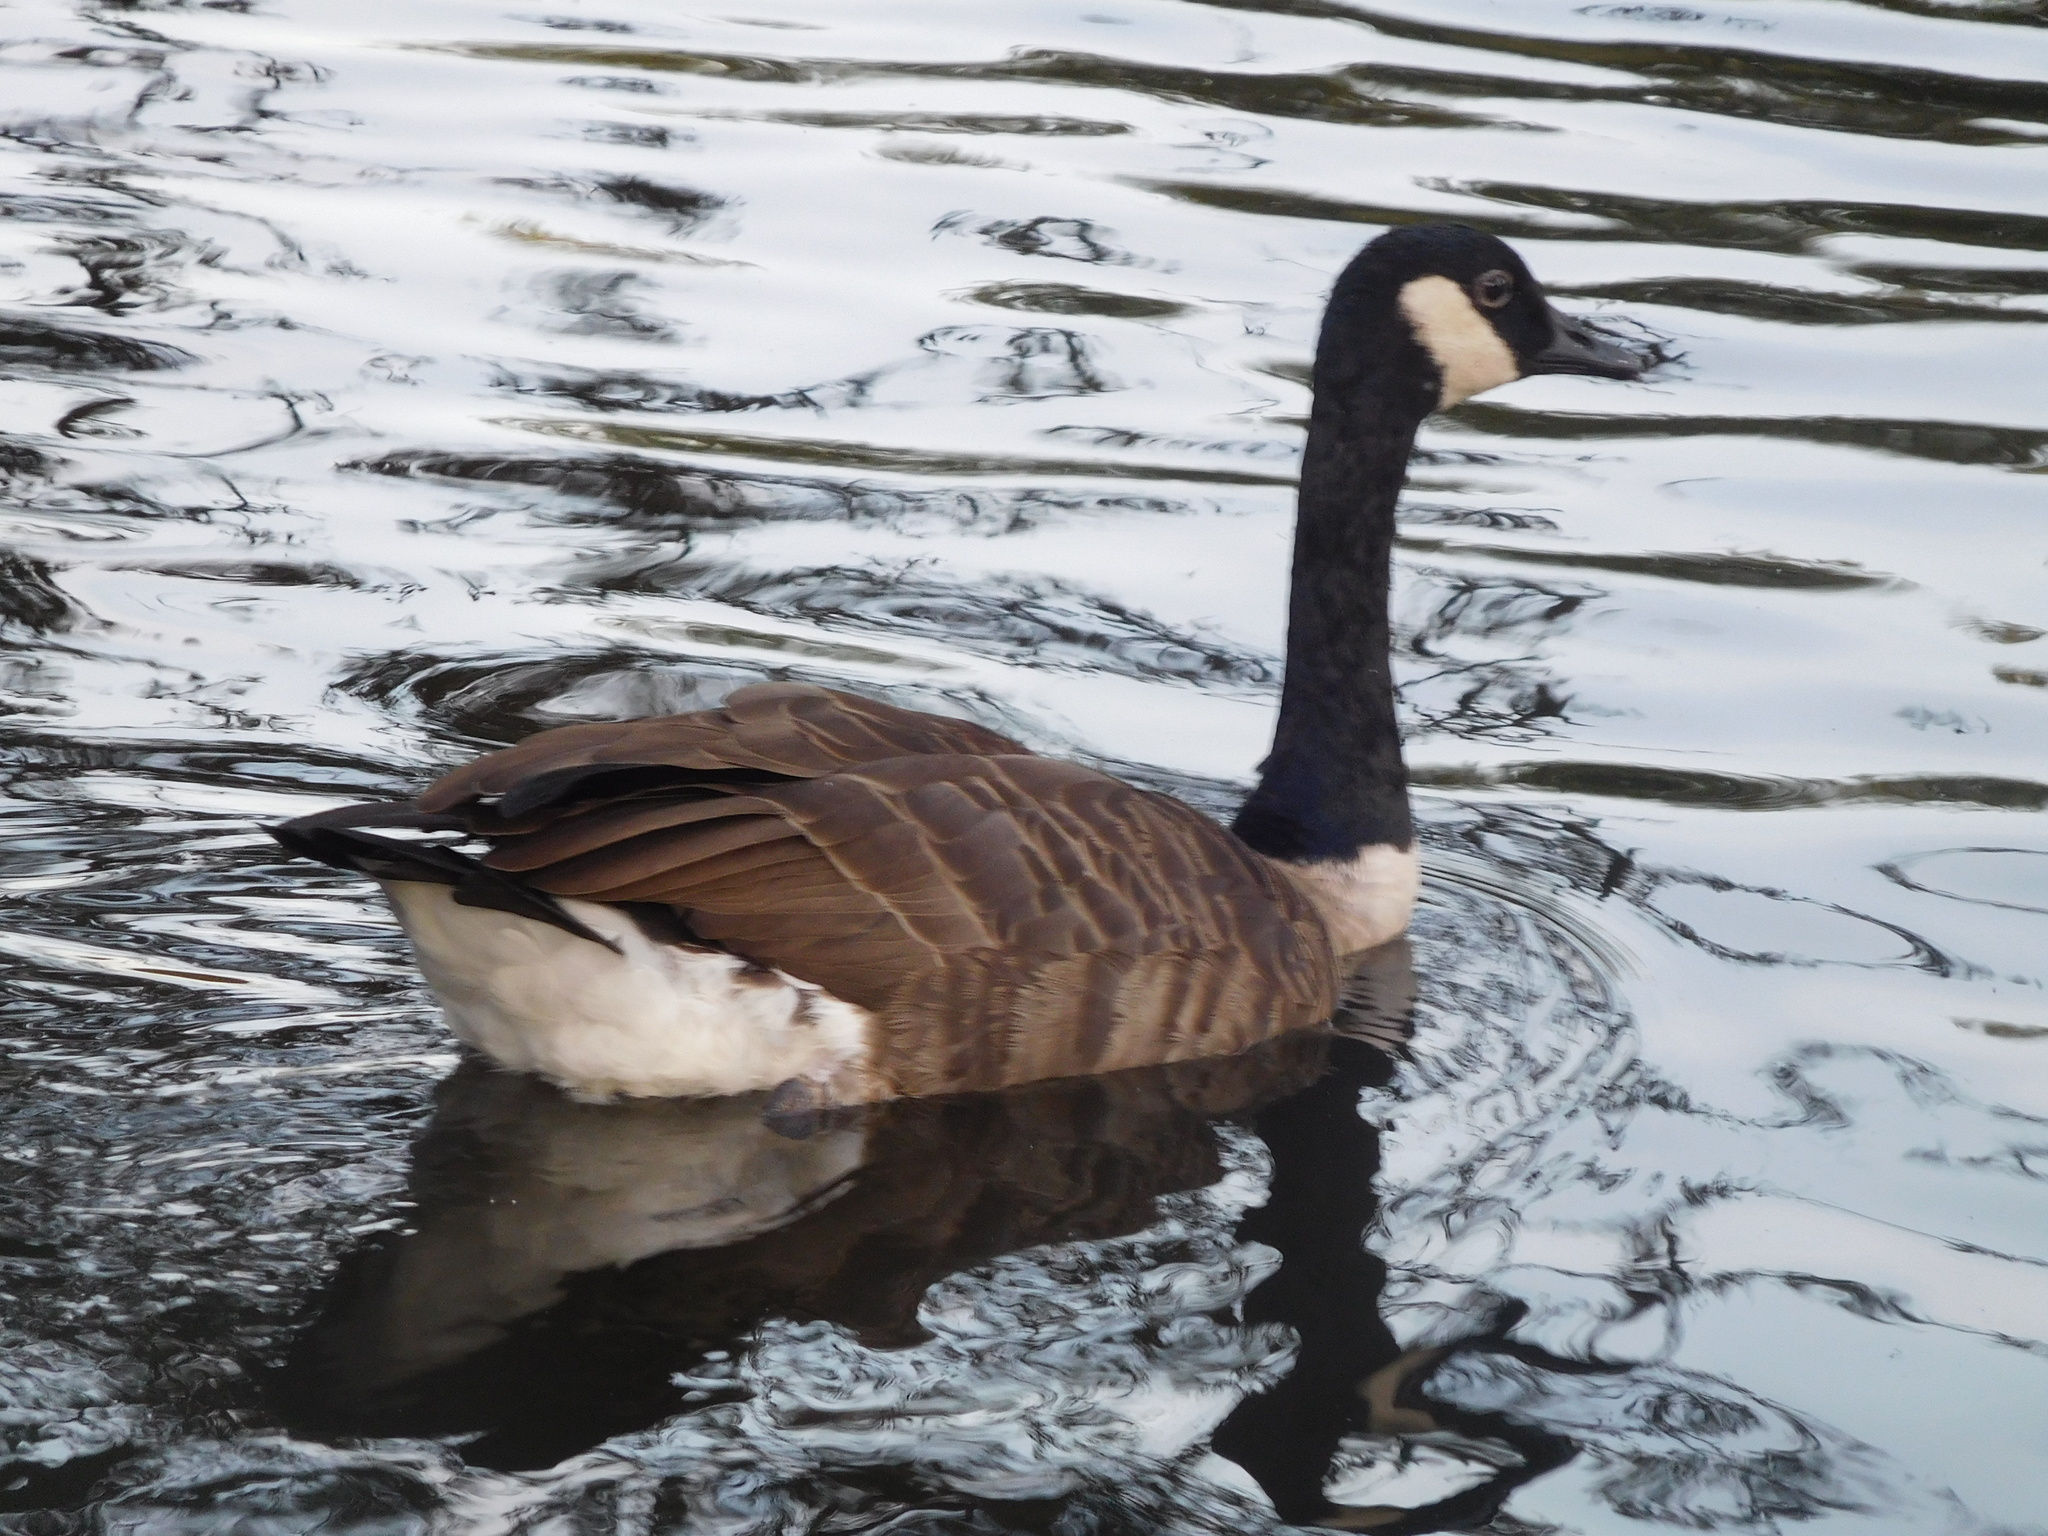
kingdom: Animalia
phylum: Chordata
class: Aves
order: Anseriformes
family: Anatidae
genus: Branta
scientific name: Branta canadensis
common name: Canada goose
